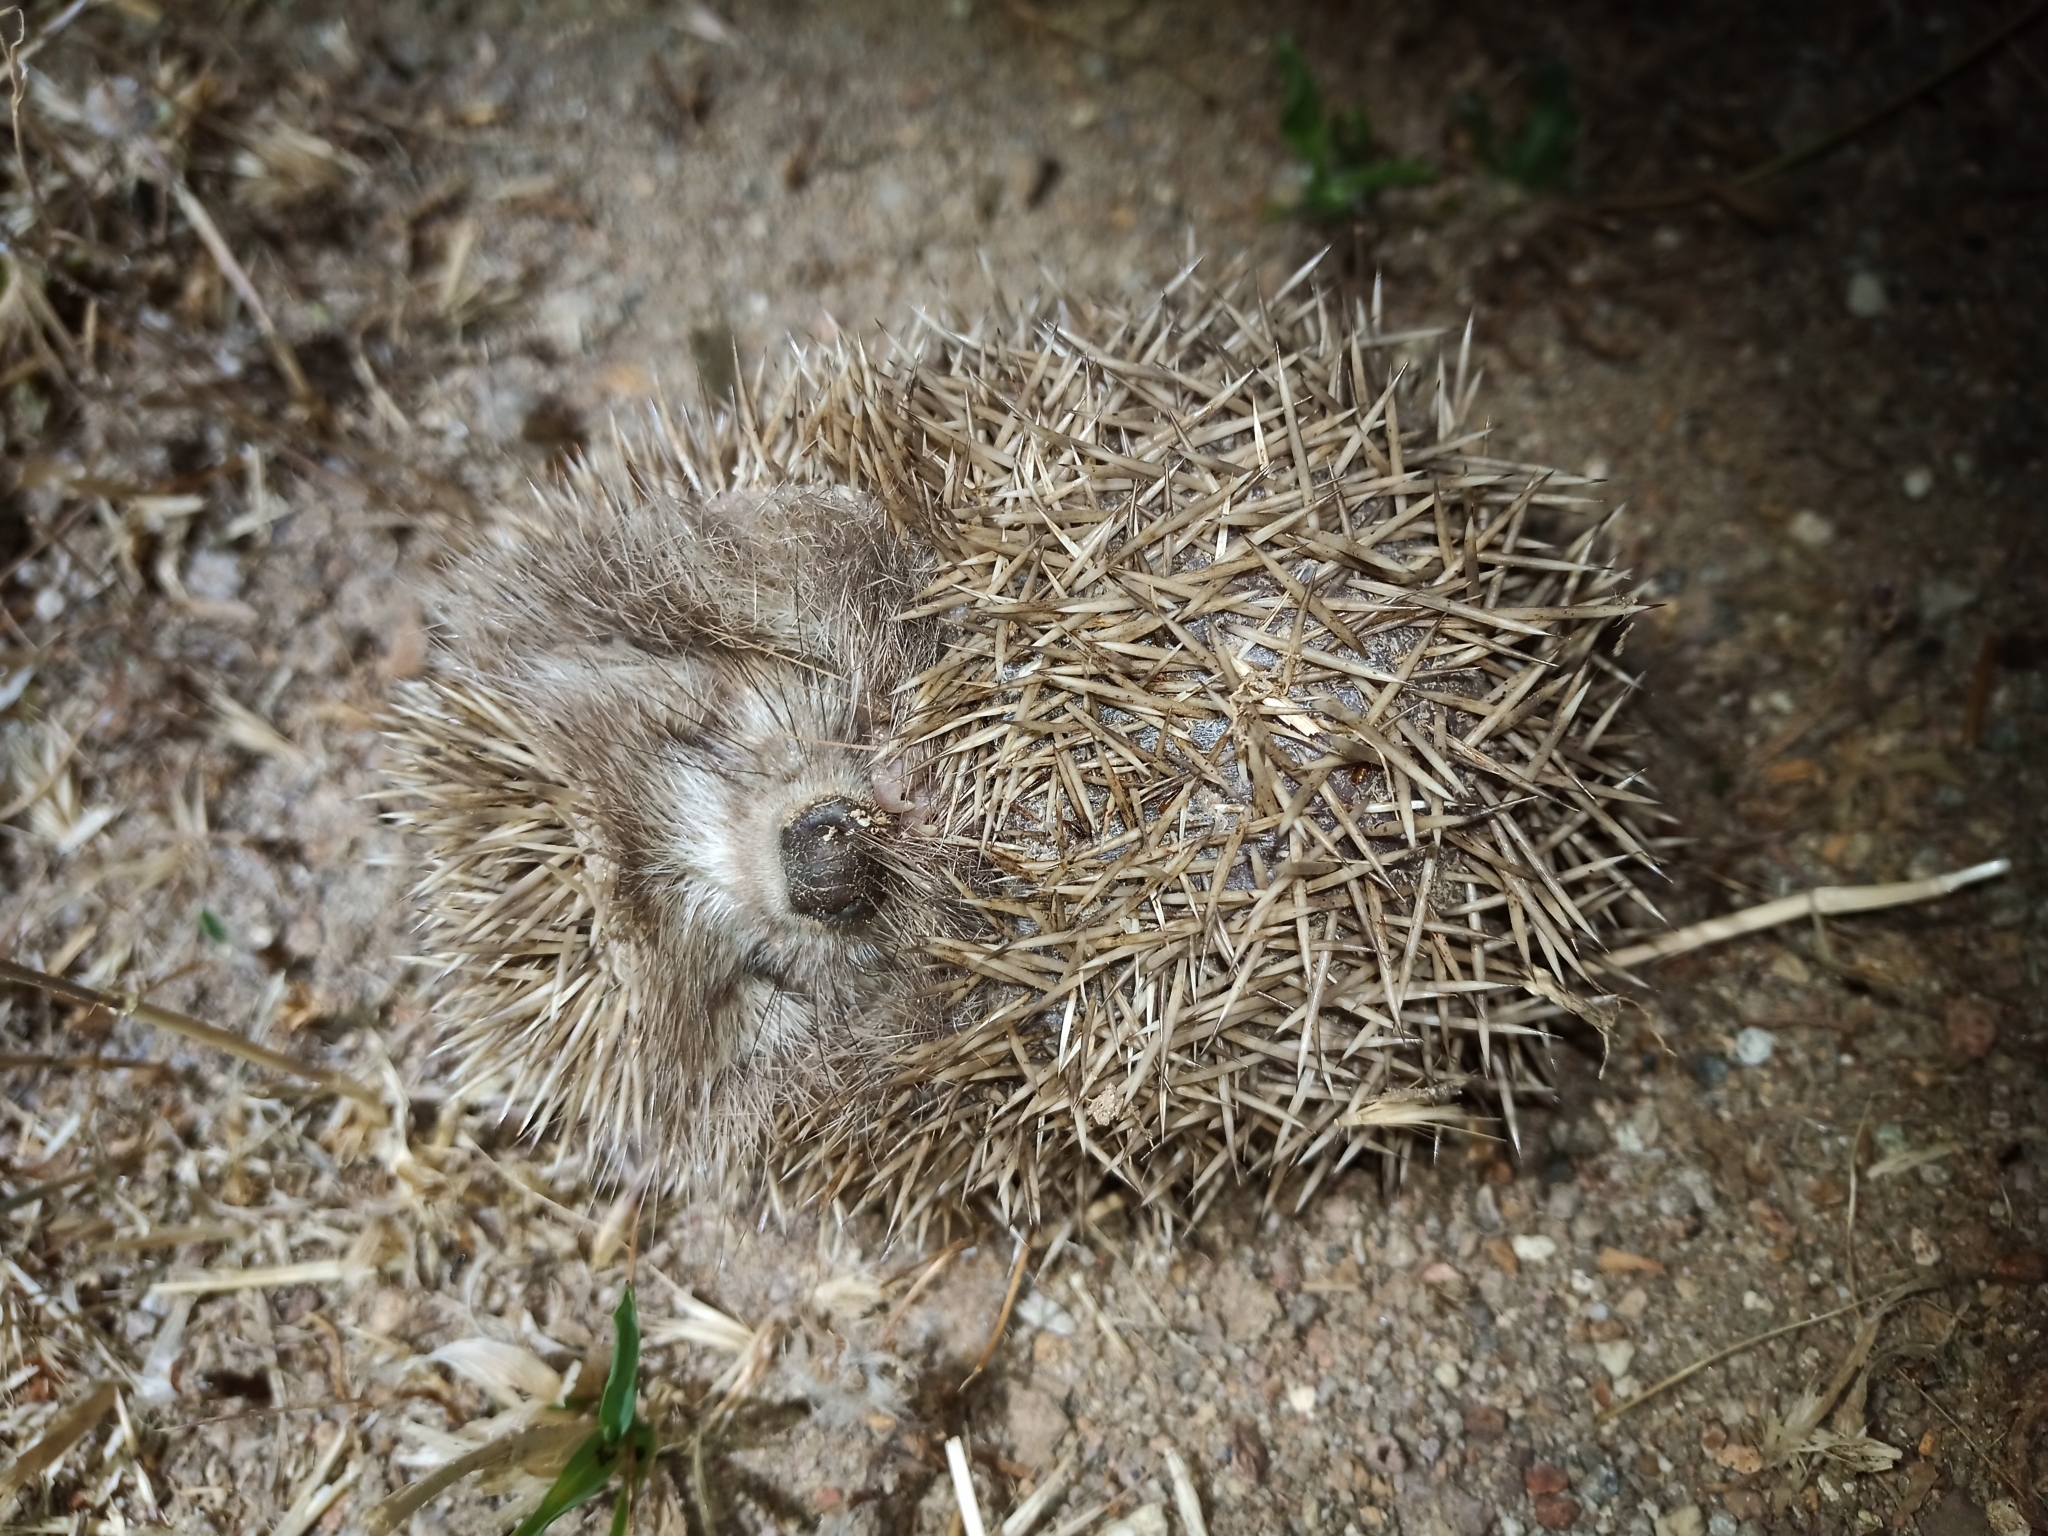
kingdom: Animalia
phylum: Chordata
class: Mammalia
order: Erinaceomorpha
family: Erinaceidae
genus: Erinaceus
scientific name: Erinaceus roumanicus
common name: Northern white-breasted hedgehog
